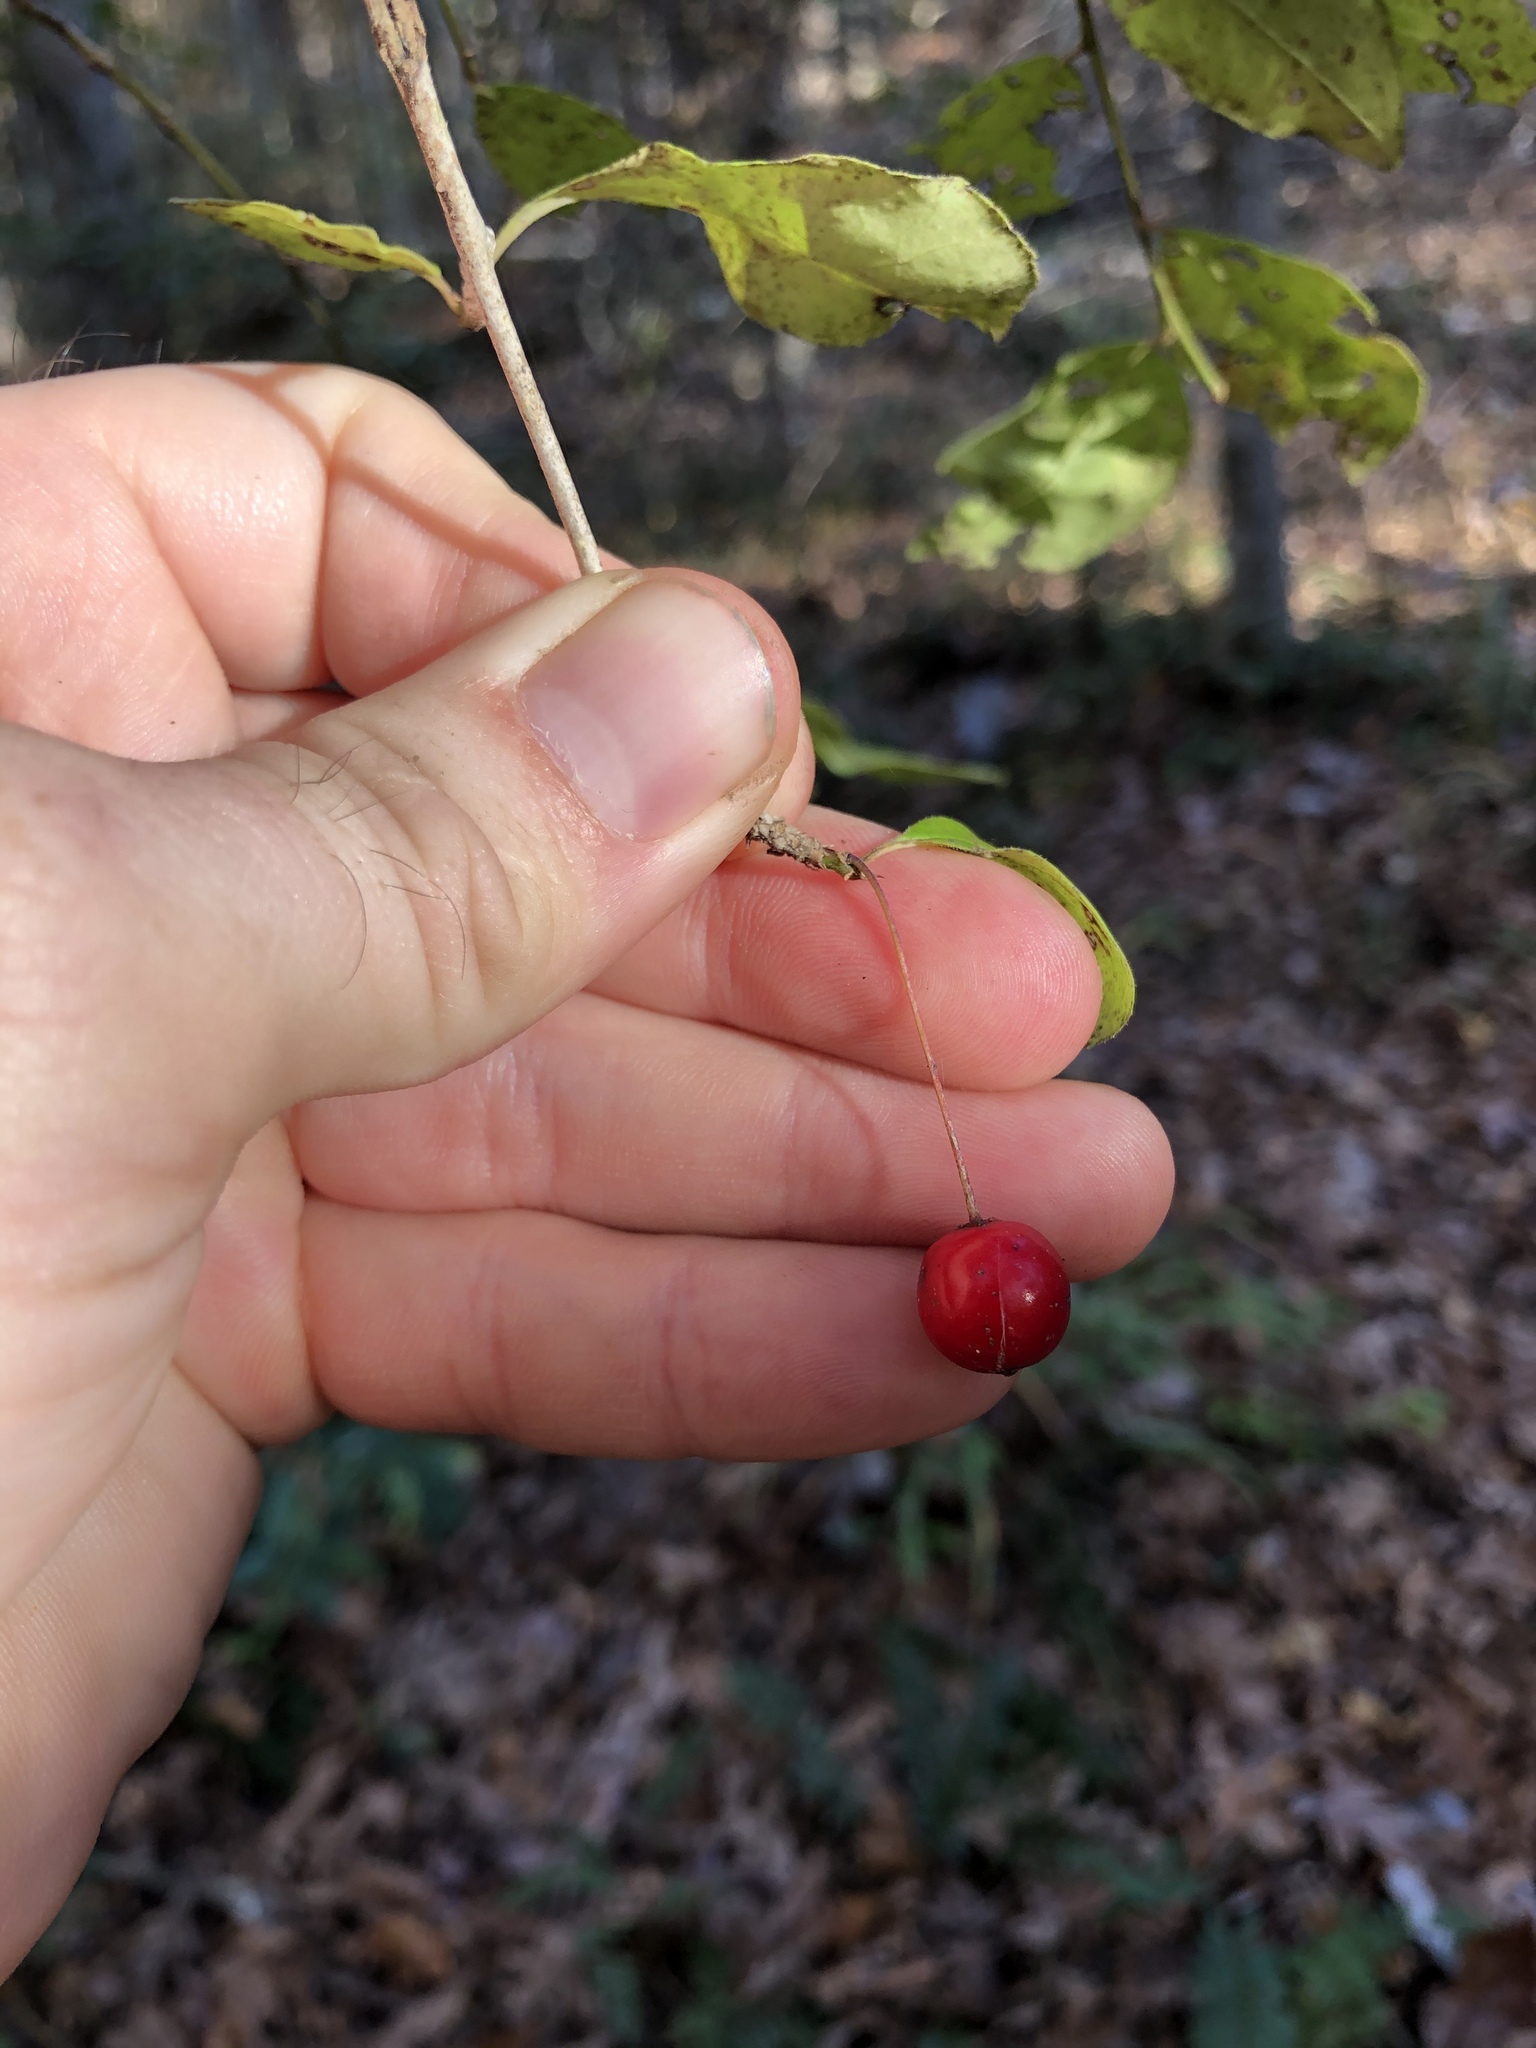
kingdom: Plantae
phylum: Tracheophyta
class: Magnoliopsida
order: Aquifoliales
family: Aquifoliaceae
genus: Ilex
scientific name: Ilex longipes
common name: Georgia holly
